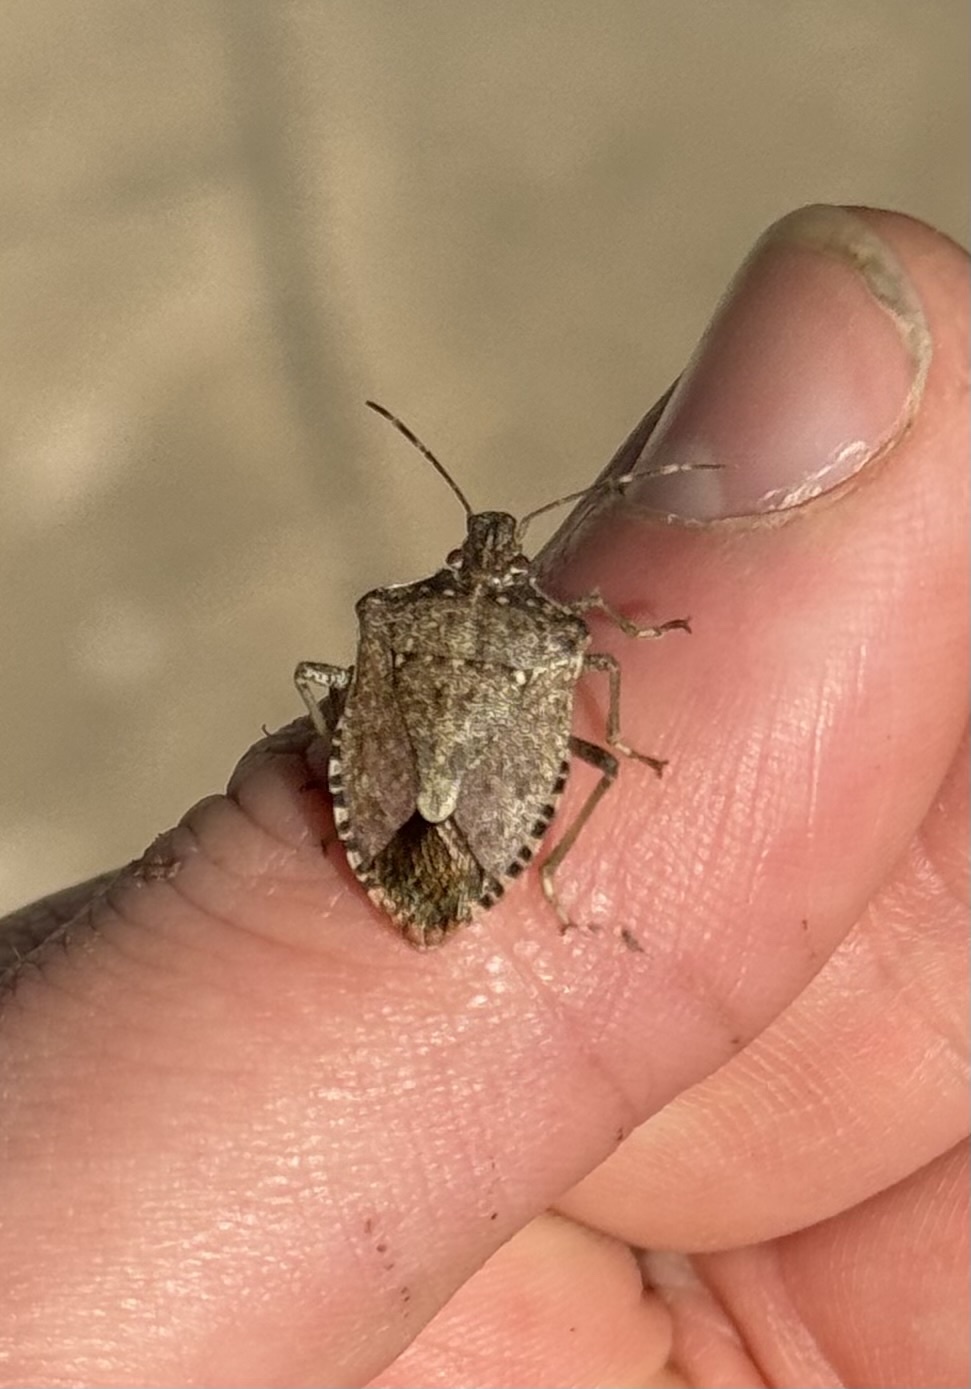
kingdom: Animalia
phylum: Arthropoda
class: Insecta
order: Hemiptera
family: Pentatomidae
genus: Halyomorpha
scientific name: Halyomorpha halys
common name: Brown marmorated stink bug
